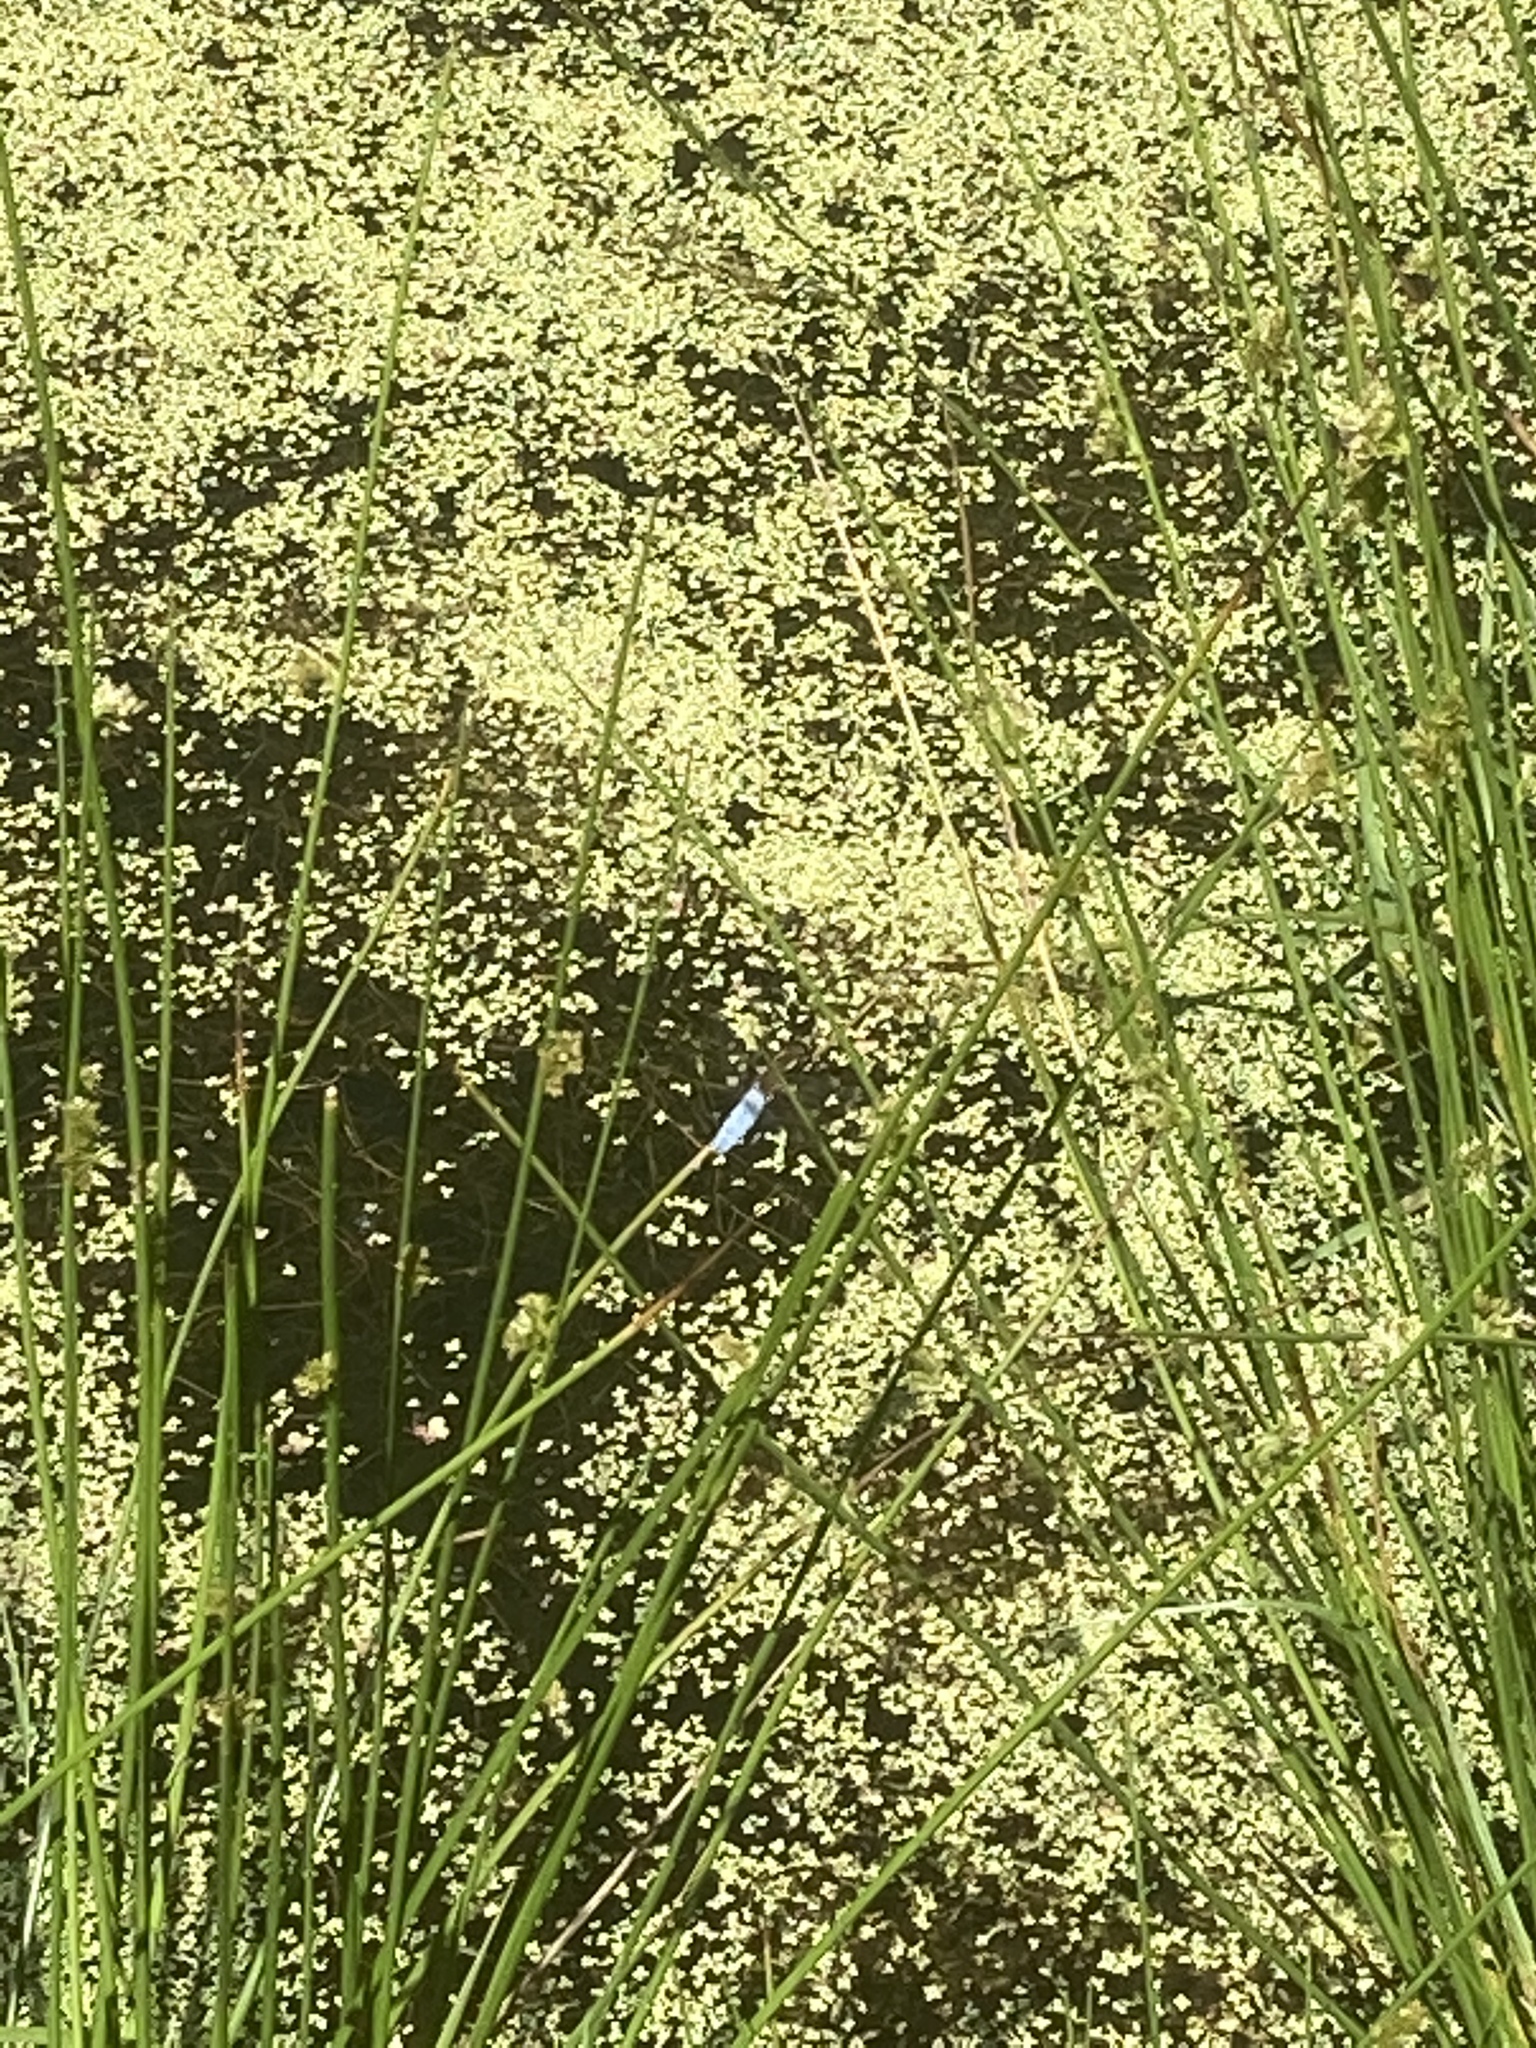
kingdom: Animalia
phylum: Arthropoda
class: Insecta
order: Odonata
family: Libellulidae
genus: Libellula
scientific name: Libellula depressa
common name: Broad-bodied chaser
